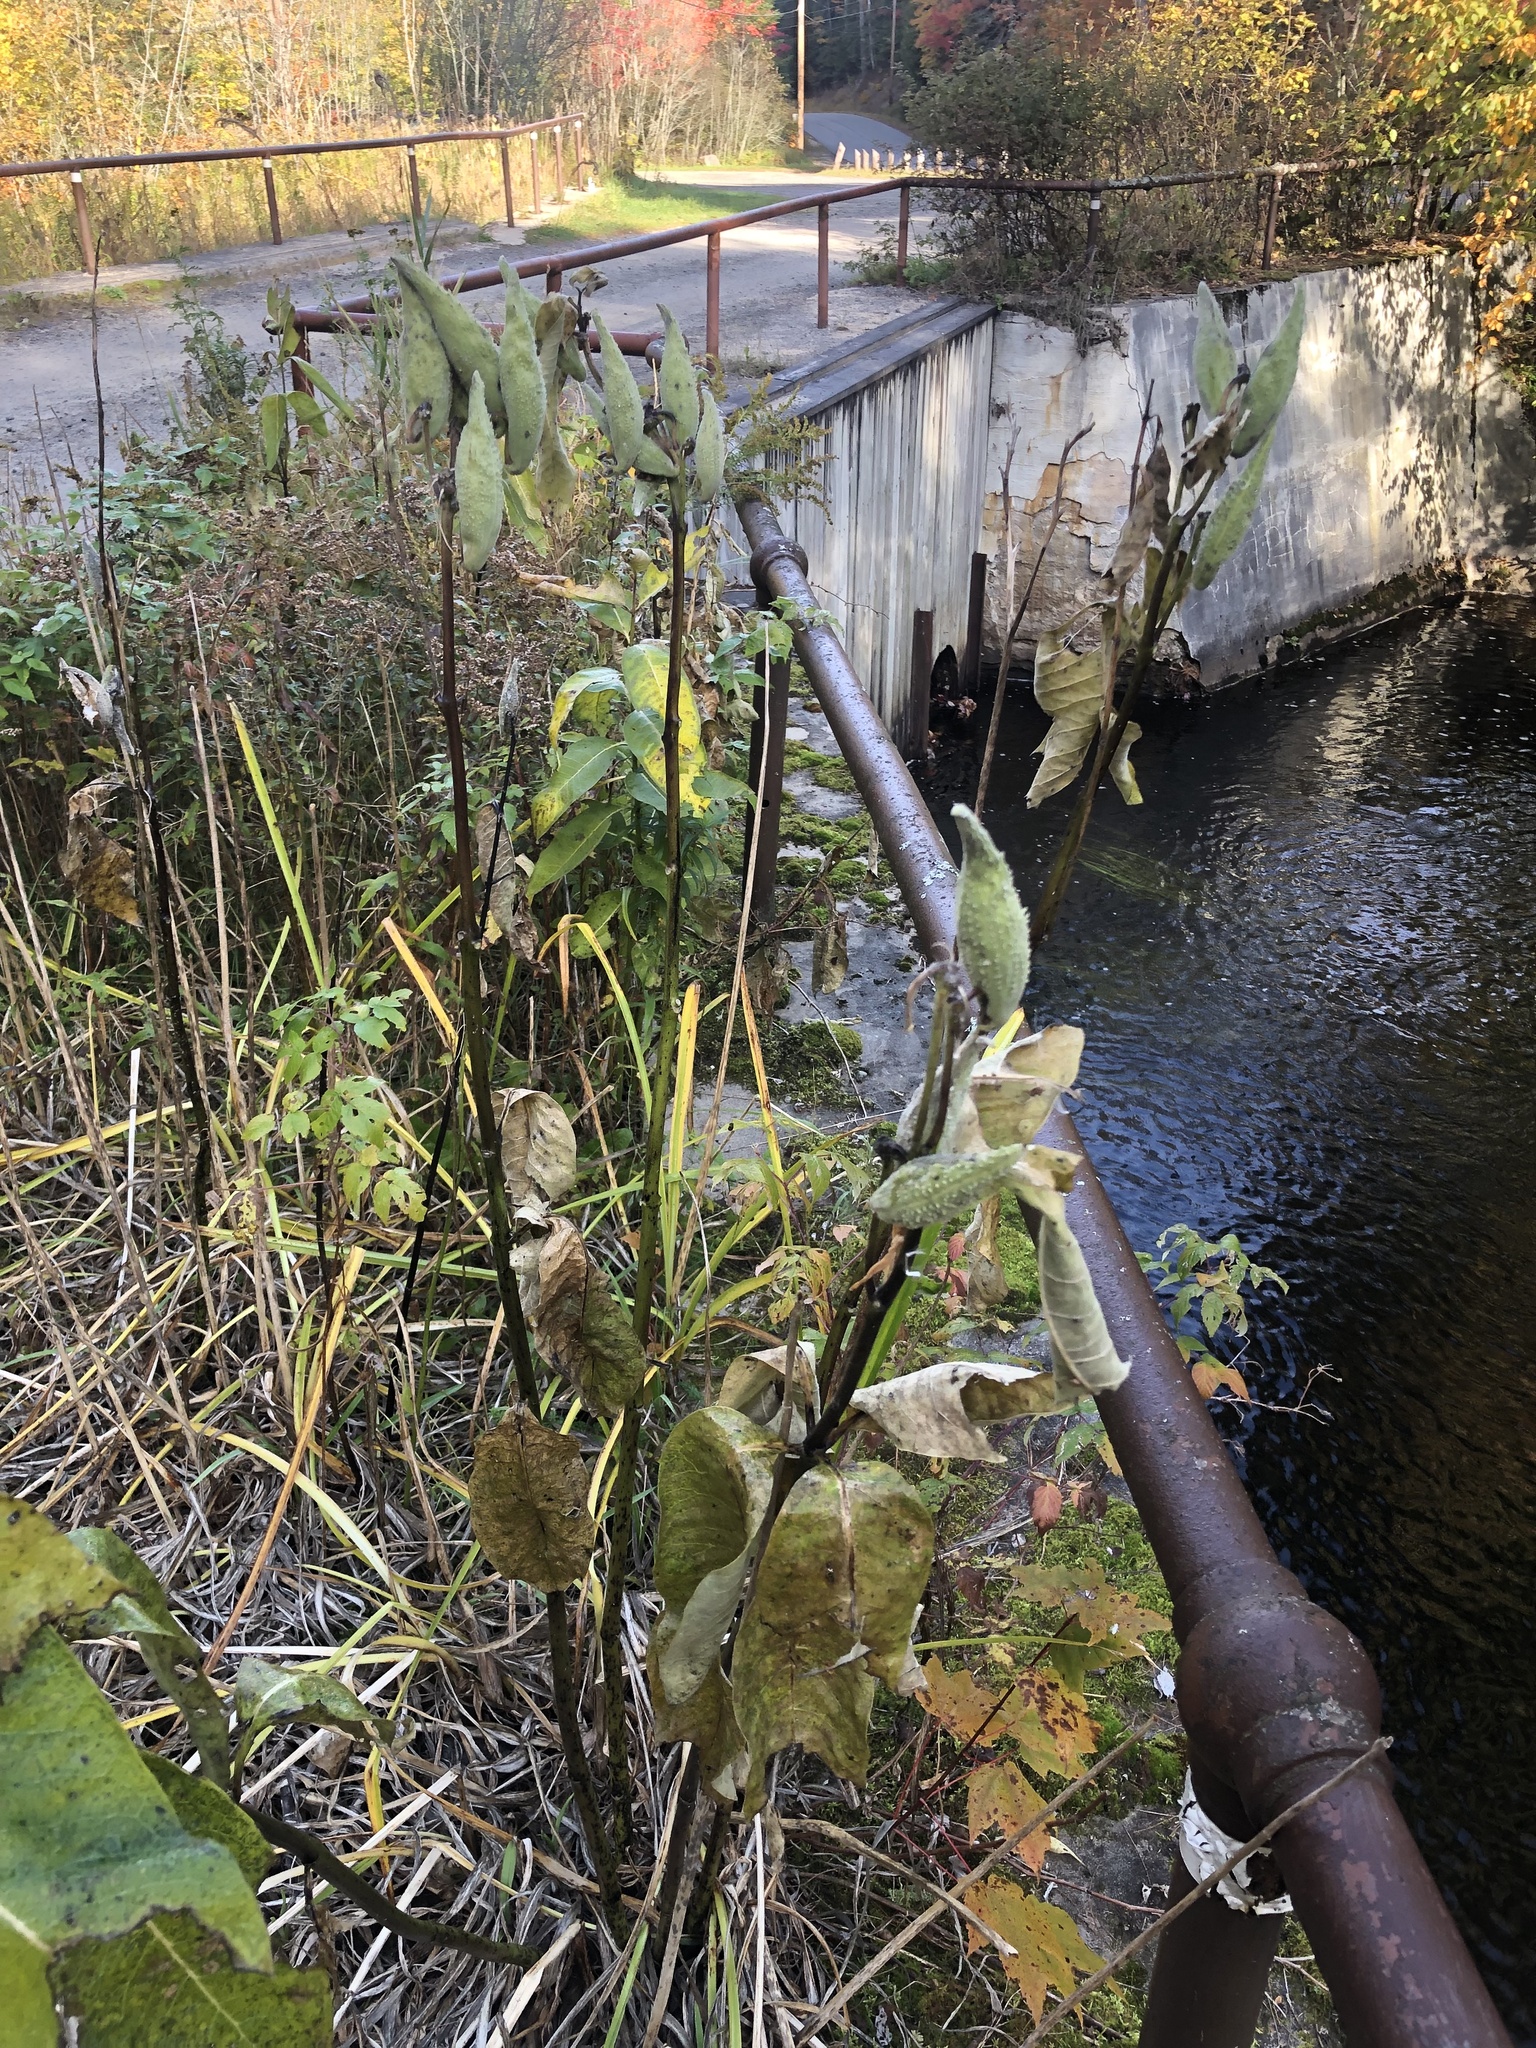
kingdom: Plantae
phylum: Tracheophyta
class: Magnoliopsida
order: Gentianales
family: Apocynaceae
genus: Asclepias
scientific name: Asclepias syriaca
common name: Common milkweed
